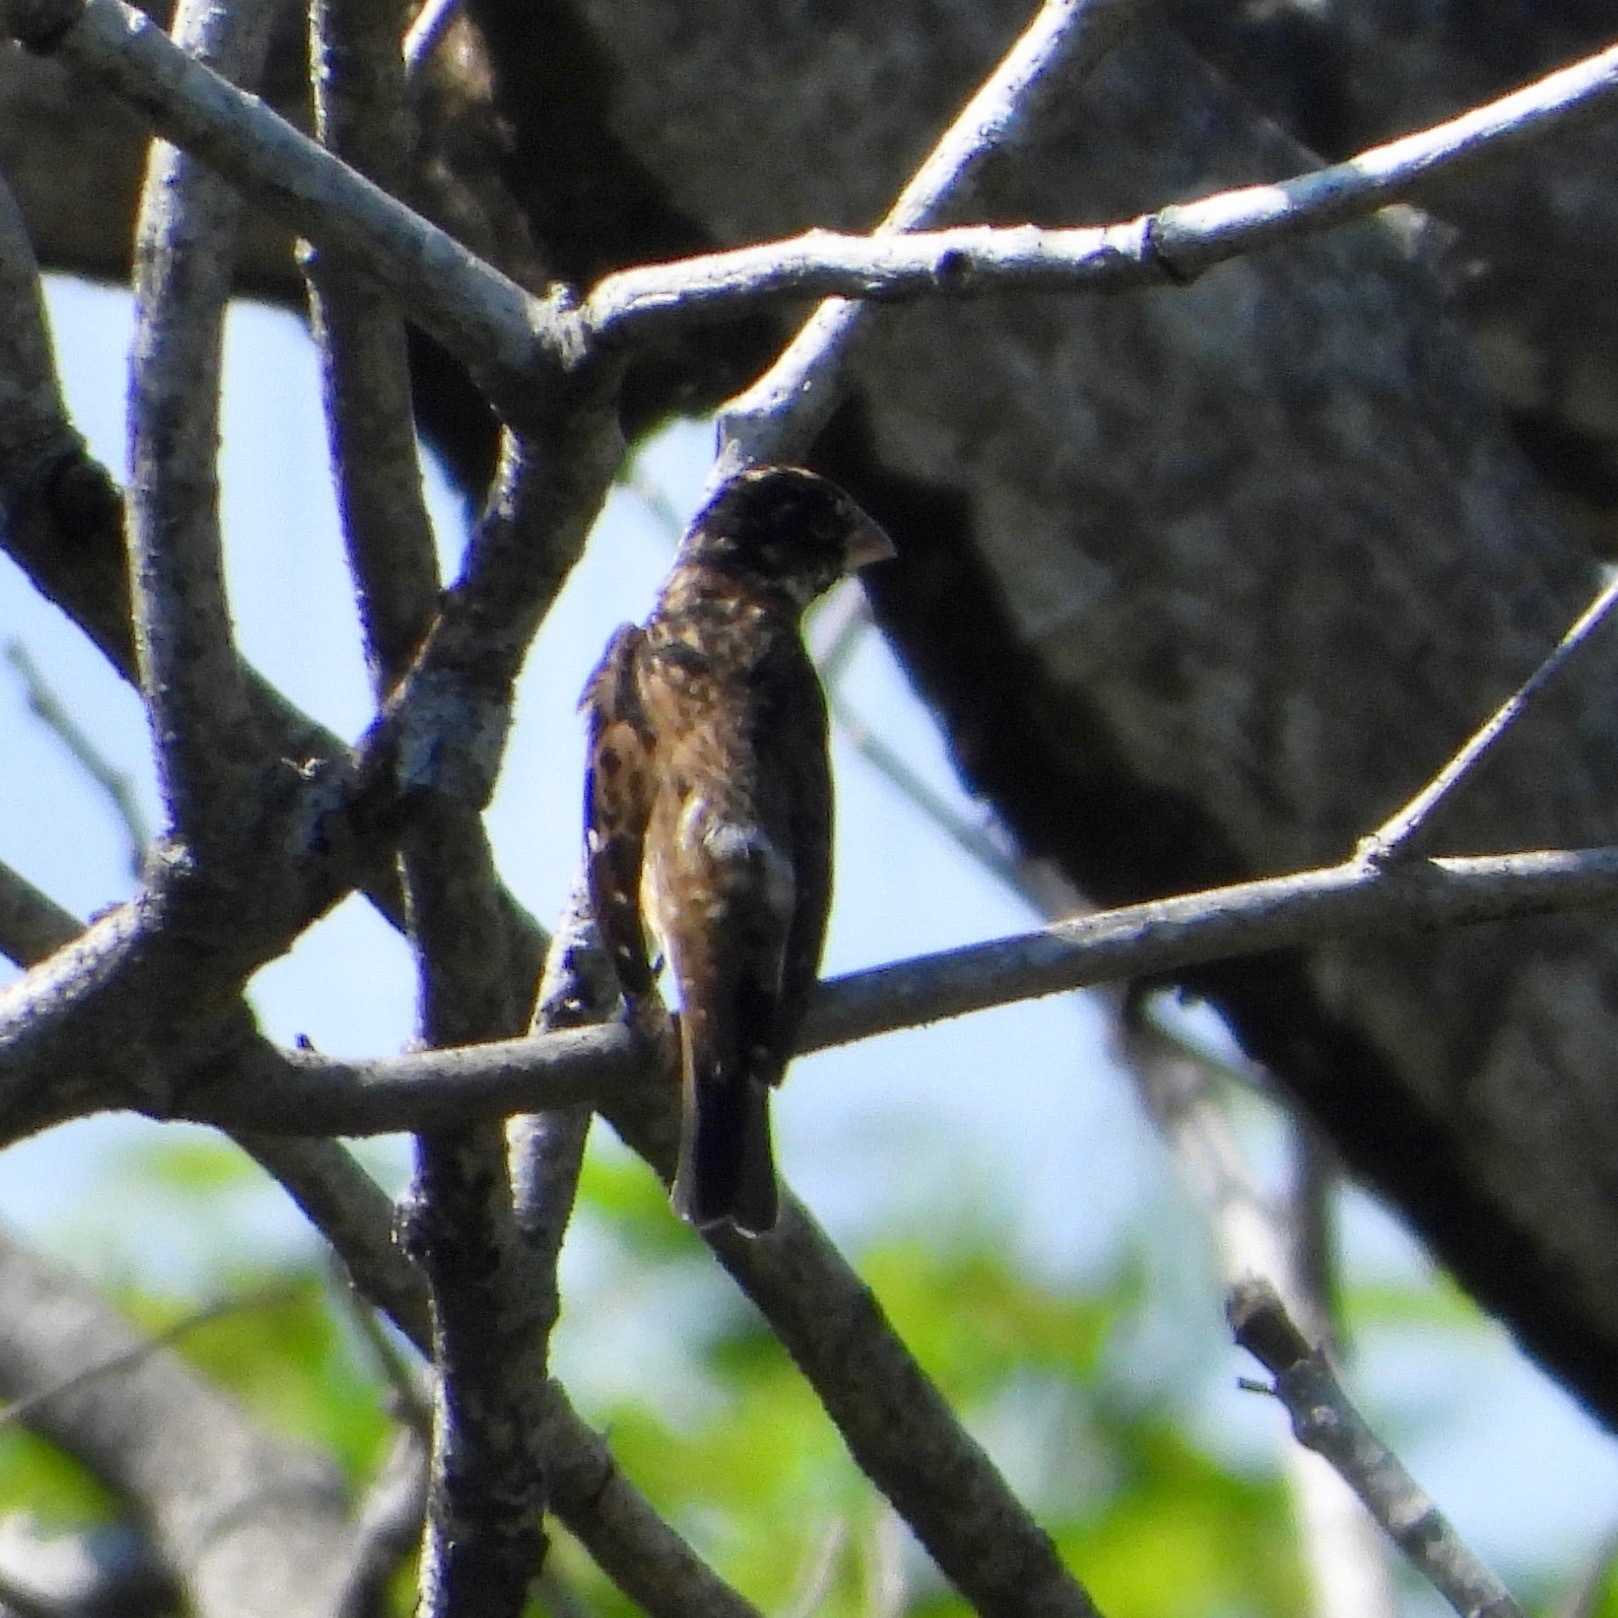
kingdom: Animalia
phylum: Chordata
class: Aves
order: Passeriformes
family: Cardinalidae
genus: Pheucticus
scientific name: Pheucticus ludovicianus
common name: Rose-breasted grosbeak
